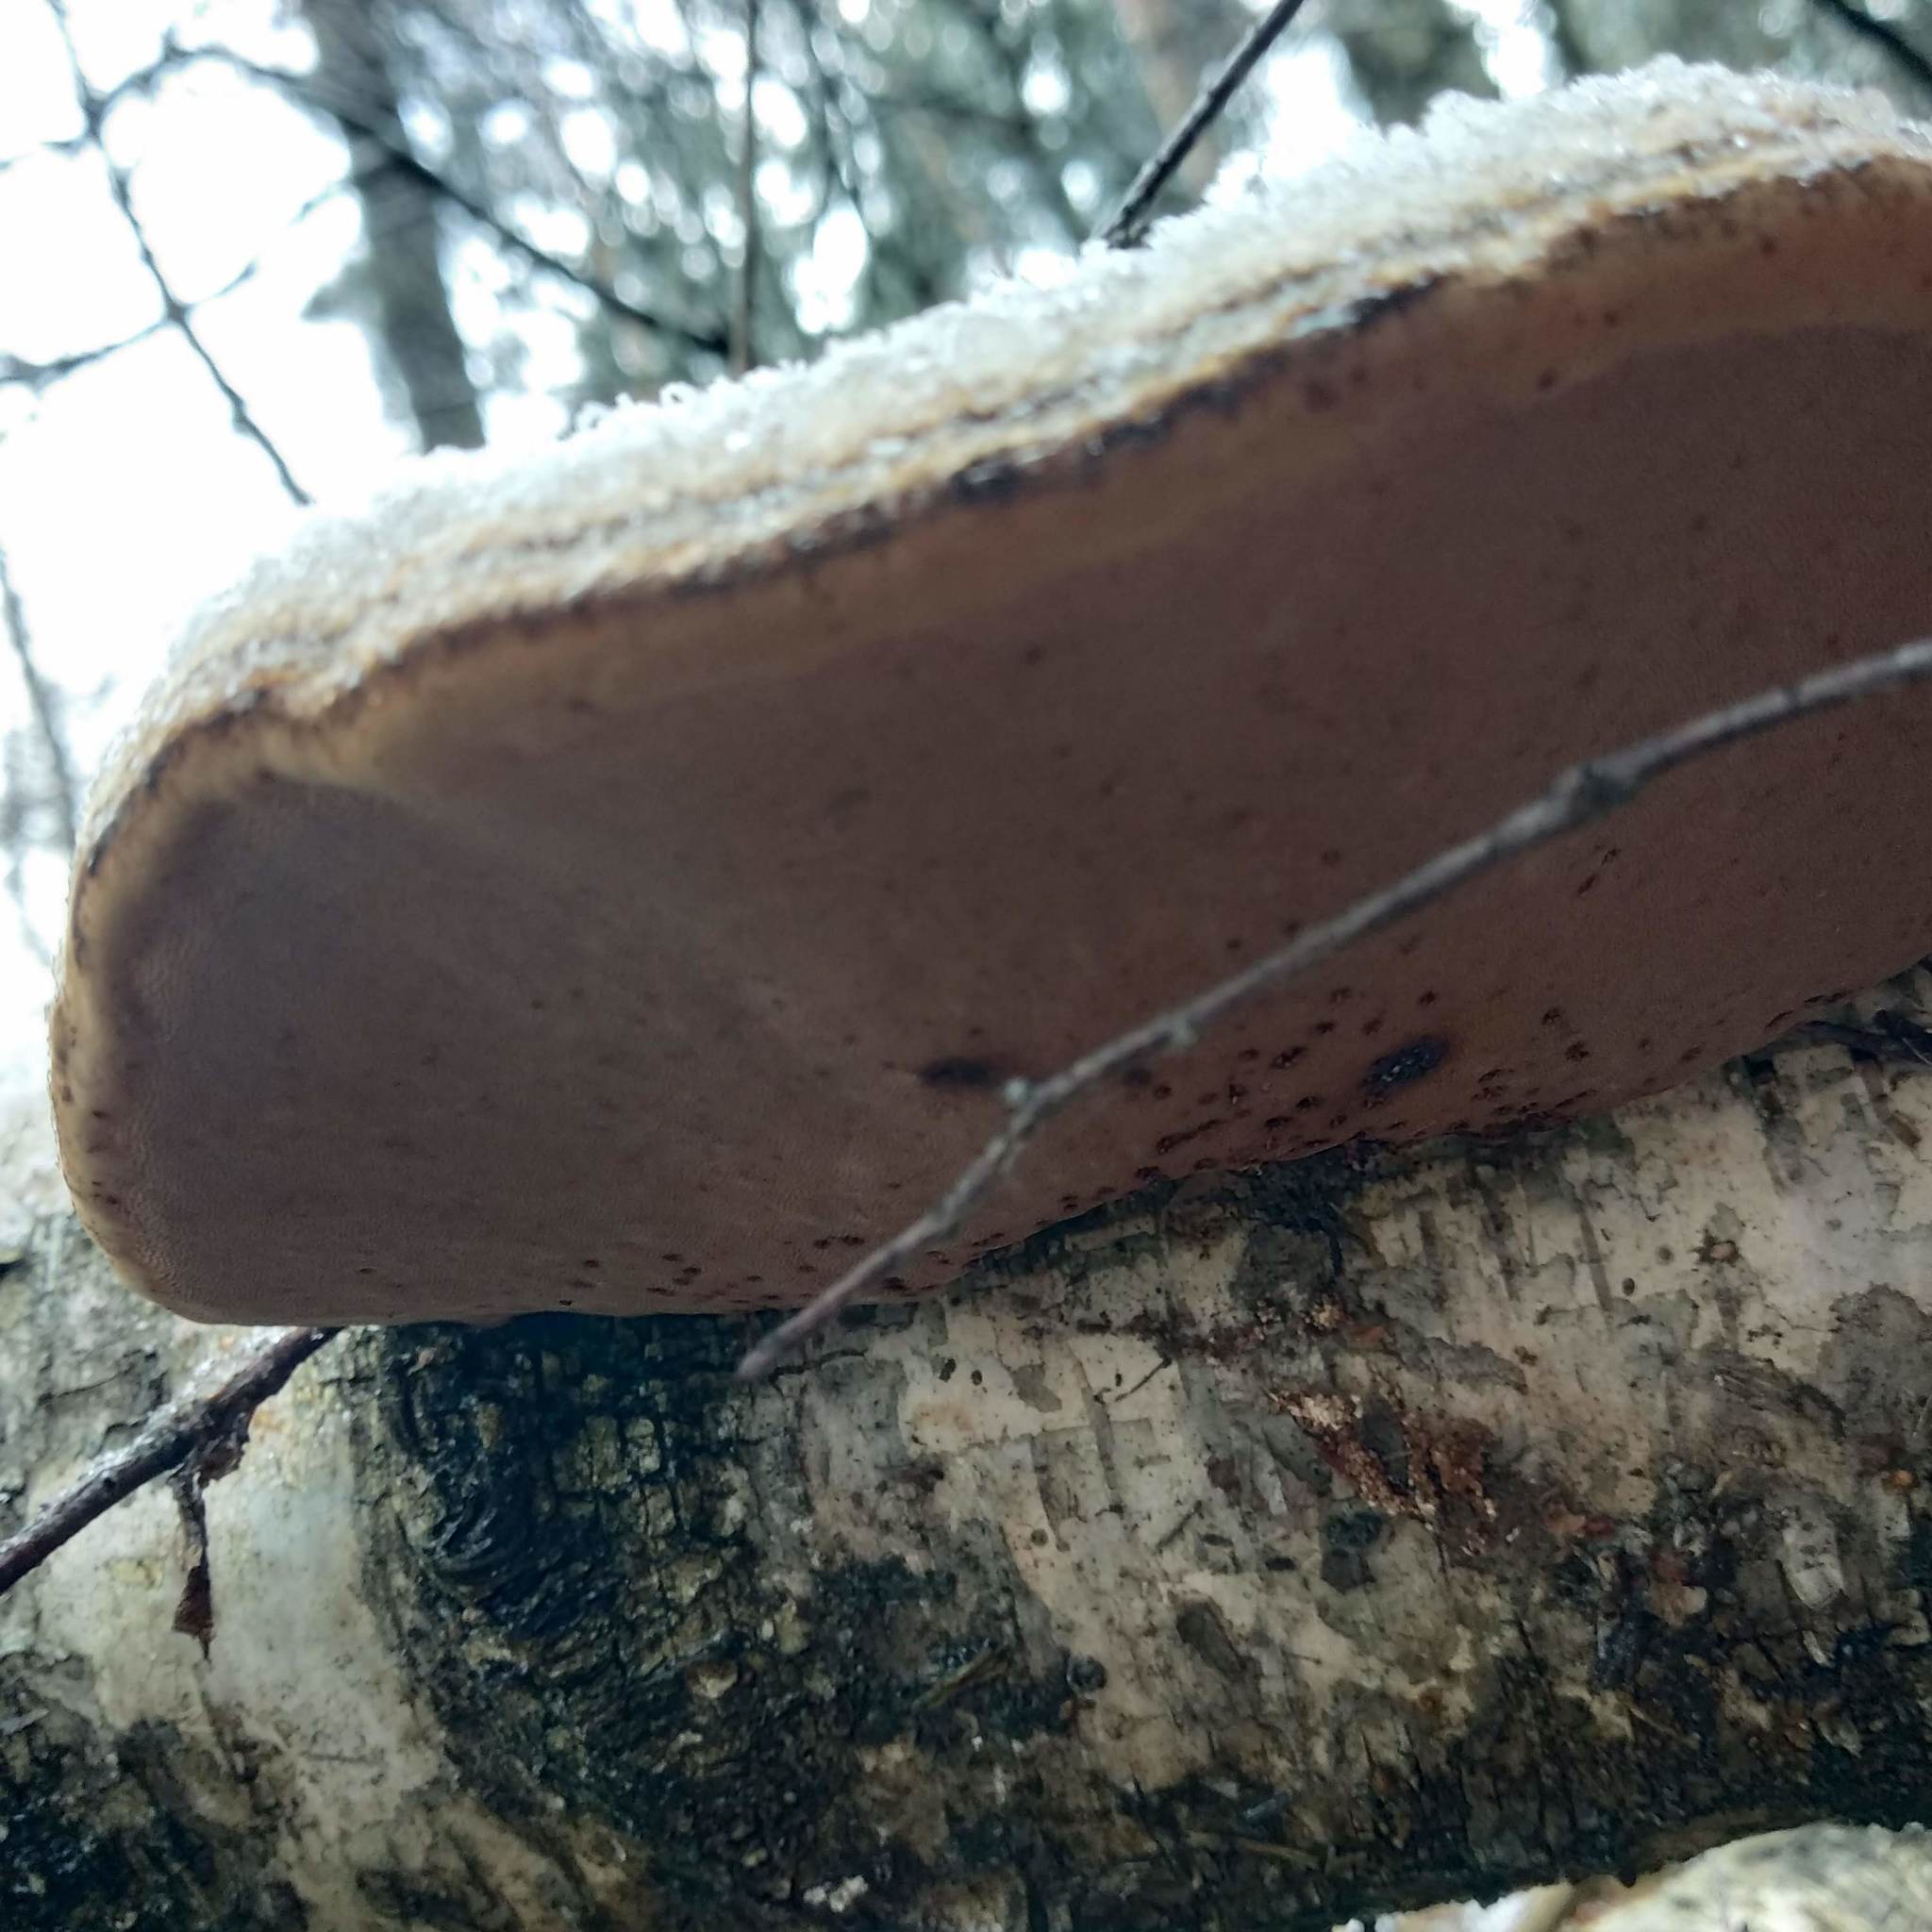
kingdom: Fungi
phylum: Basidiomycota
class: Agaricomycetes
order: Polyporales
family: Polyporaceae
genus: Fomes
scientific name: Fomes fomentarius
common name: Hoof fungus
